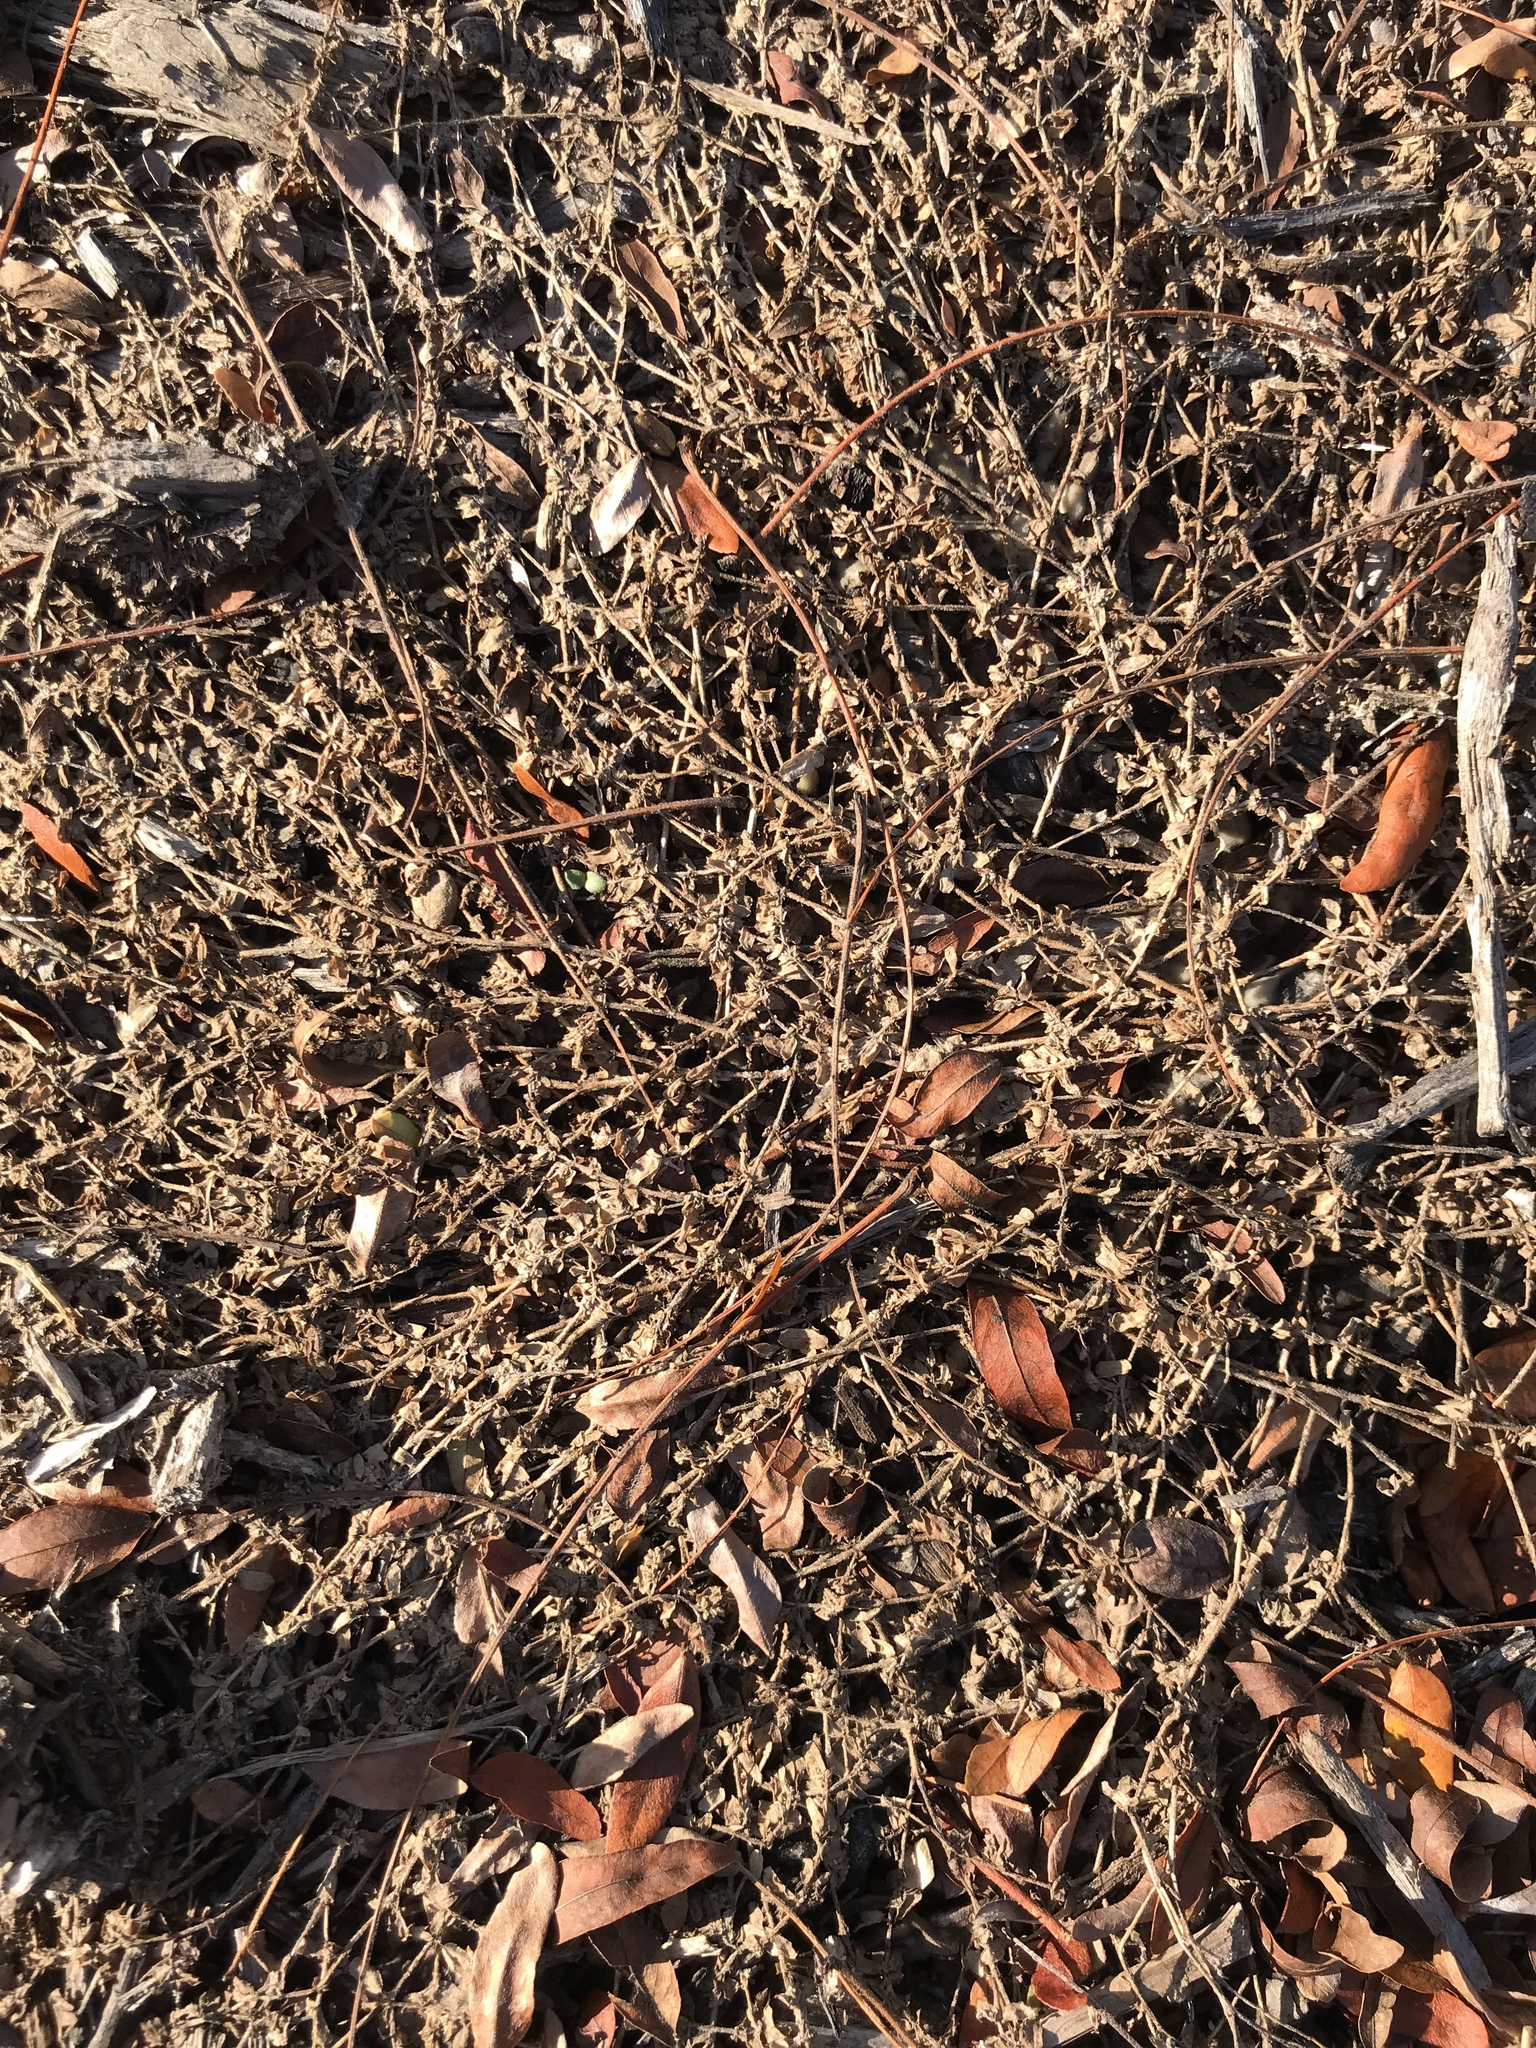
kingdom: Plantae
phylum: Tracheophyta
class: Magnoliopsida
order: Malpighiales
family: Euphorbiaceae
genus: Euphorbia
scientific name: Euphorbia maculata
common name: Spotted spurge
